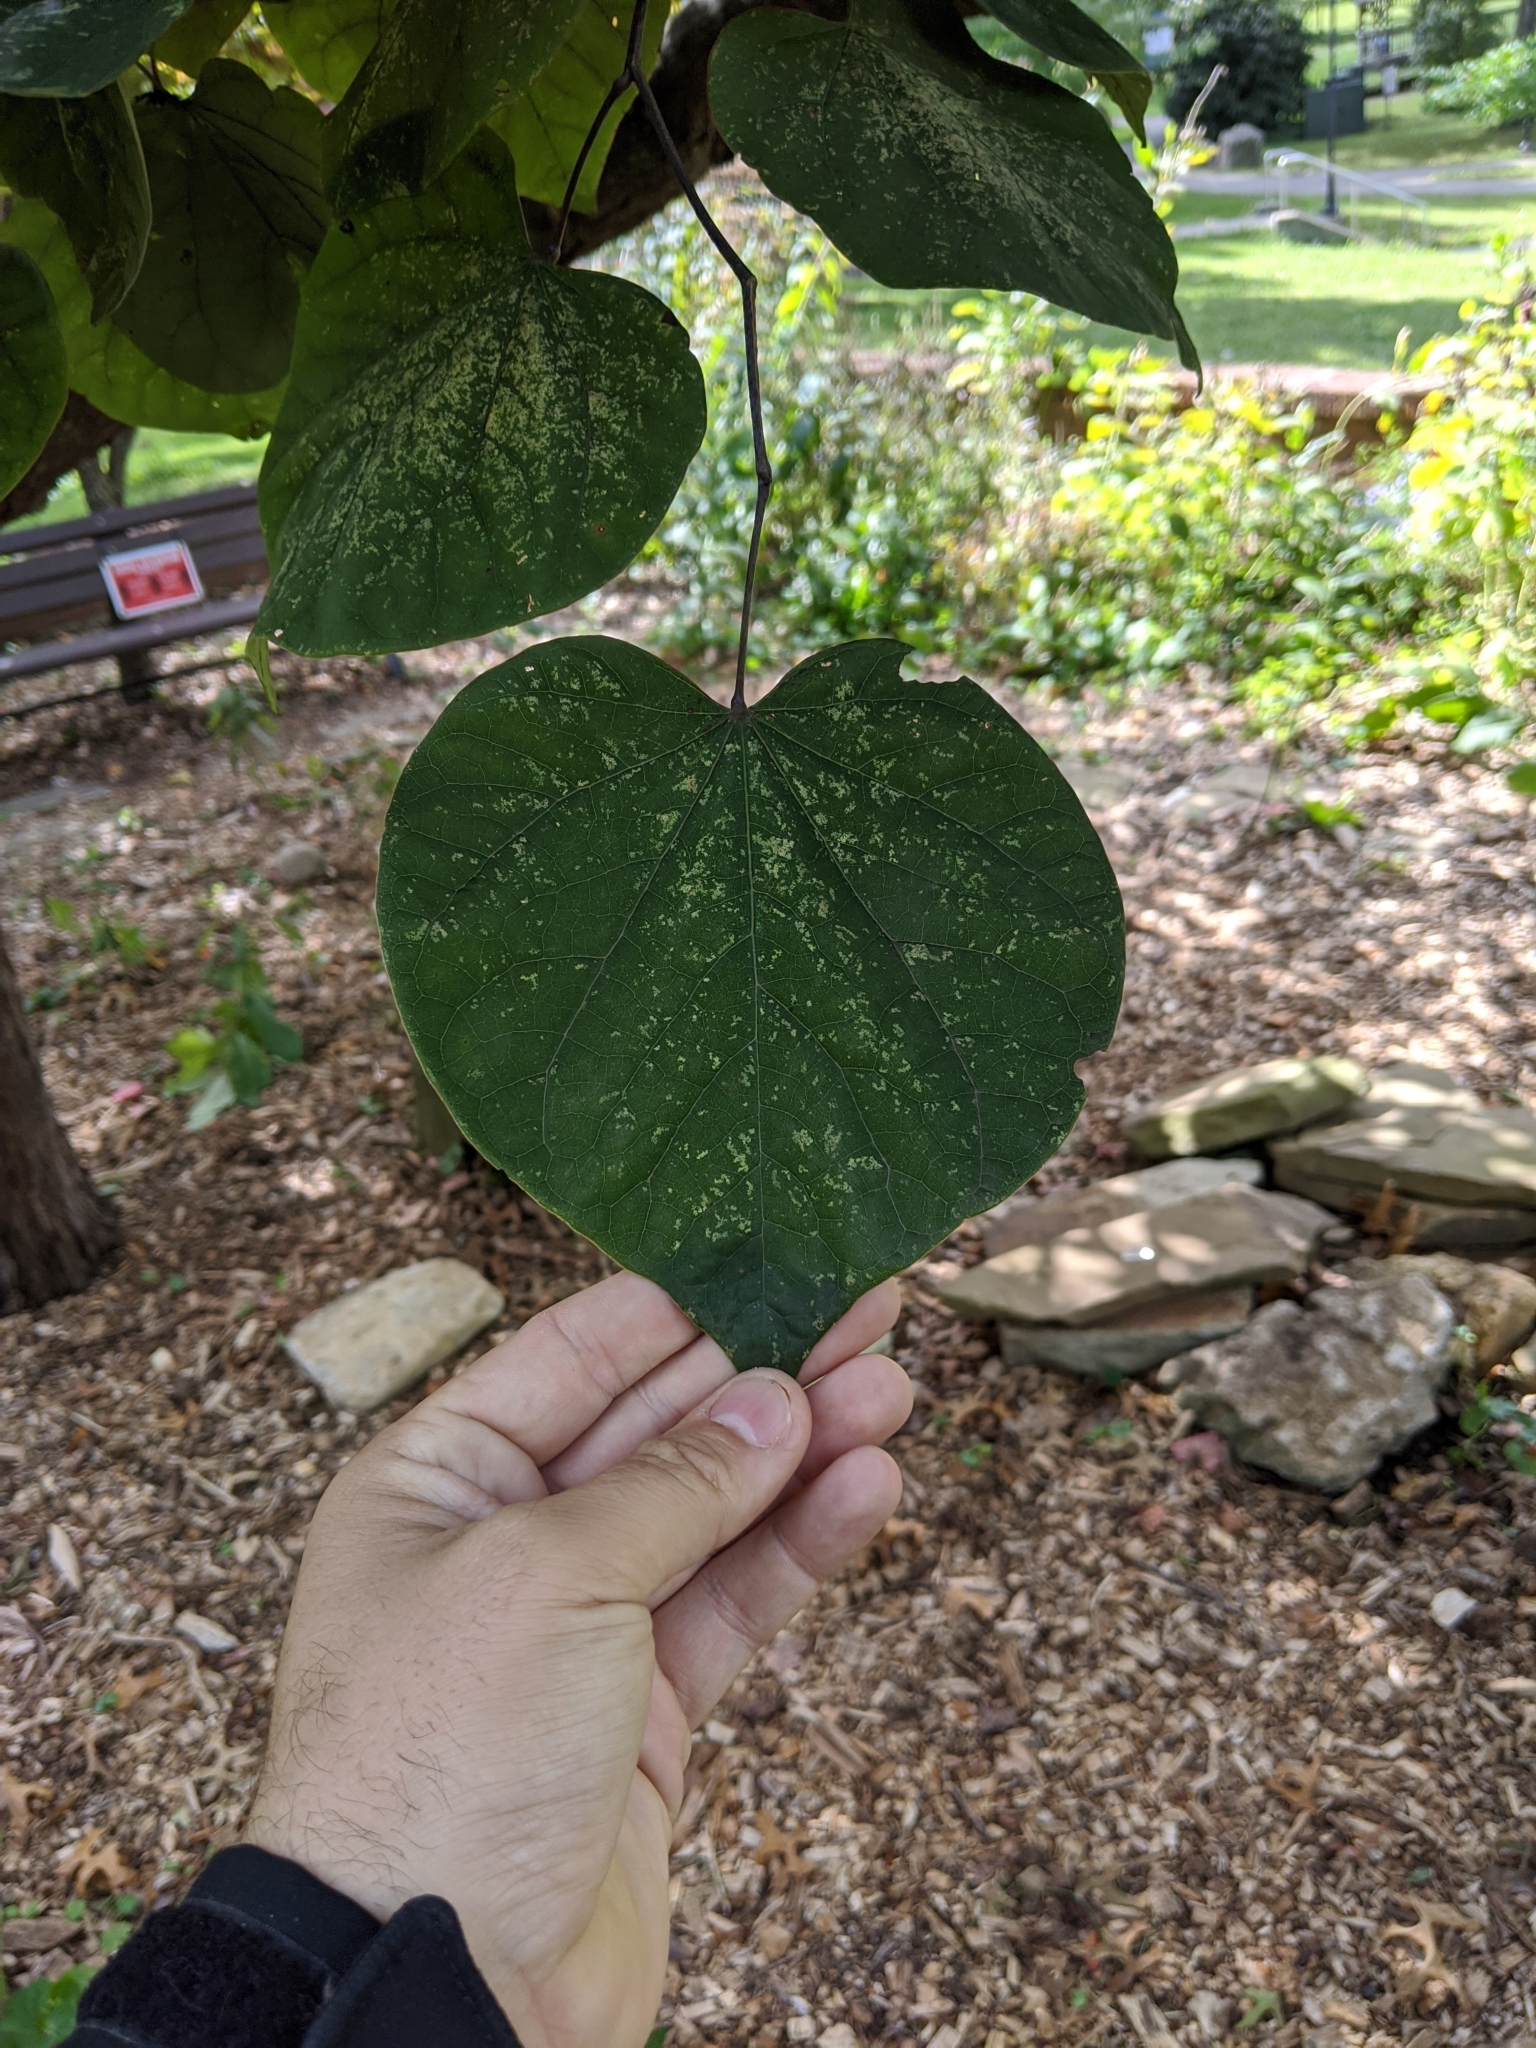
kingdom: Plantae
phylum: Tracheophyta
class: Magnoliopsida
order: Fabales
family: Fabaceae
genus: Cercis
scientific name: Cercis canadensis
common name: Eastern redbud
